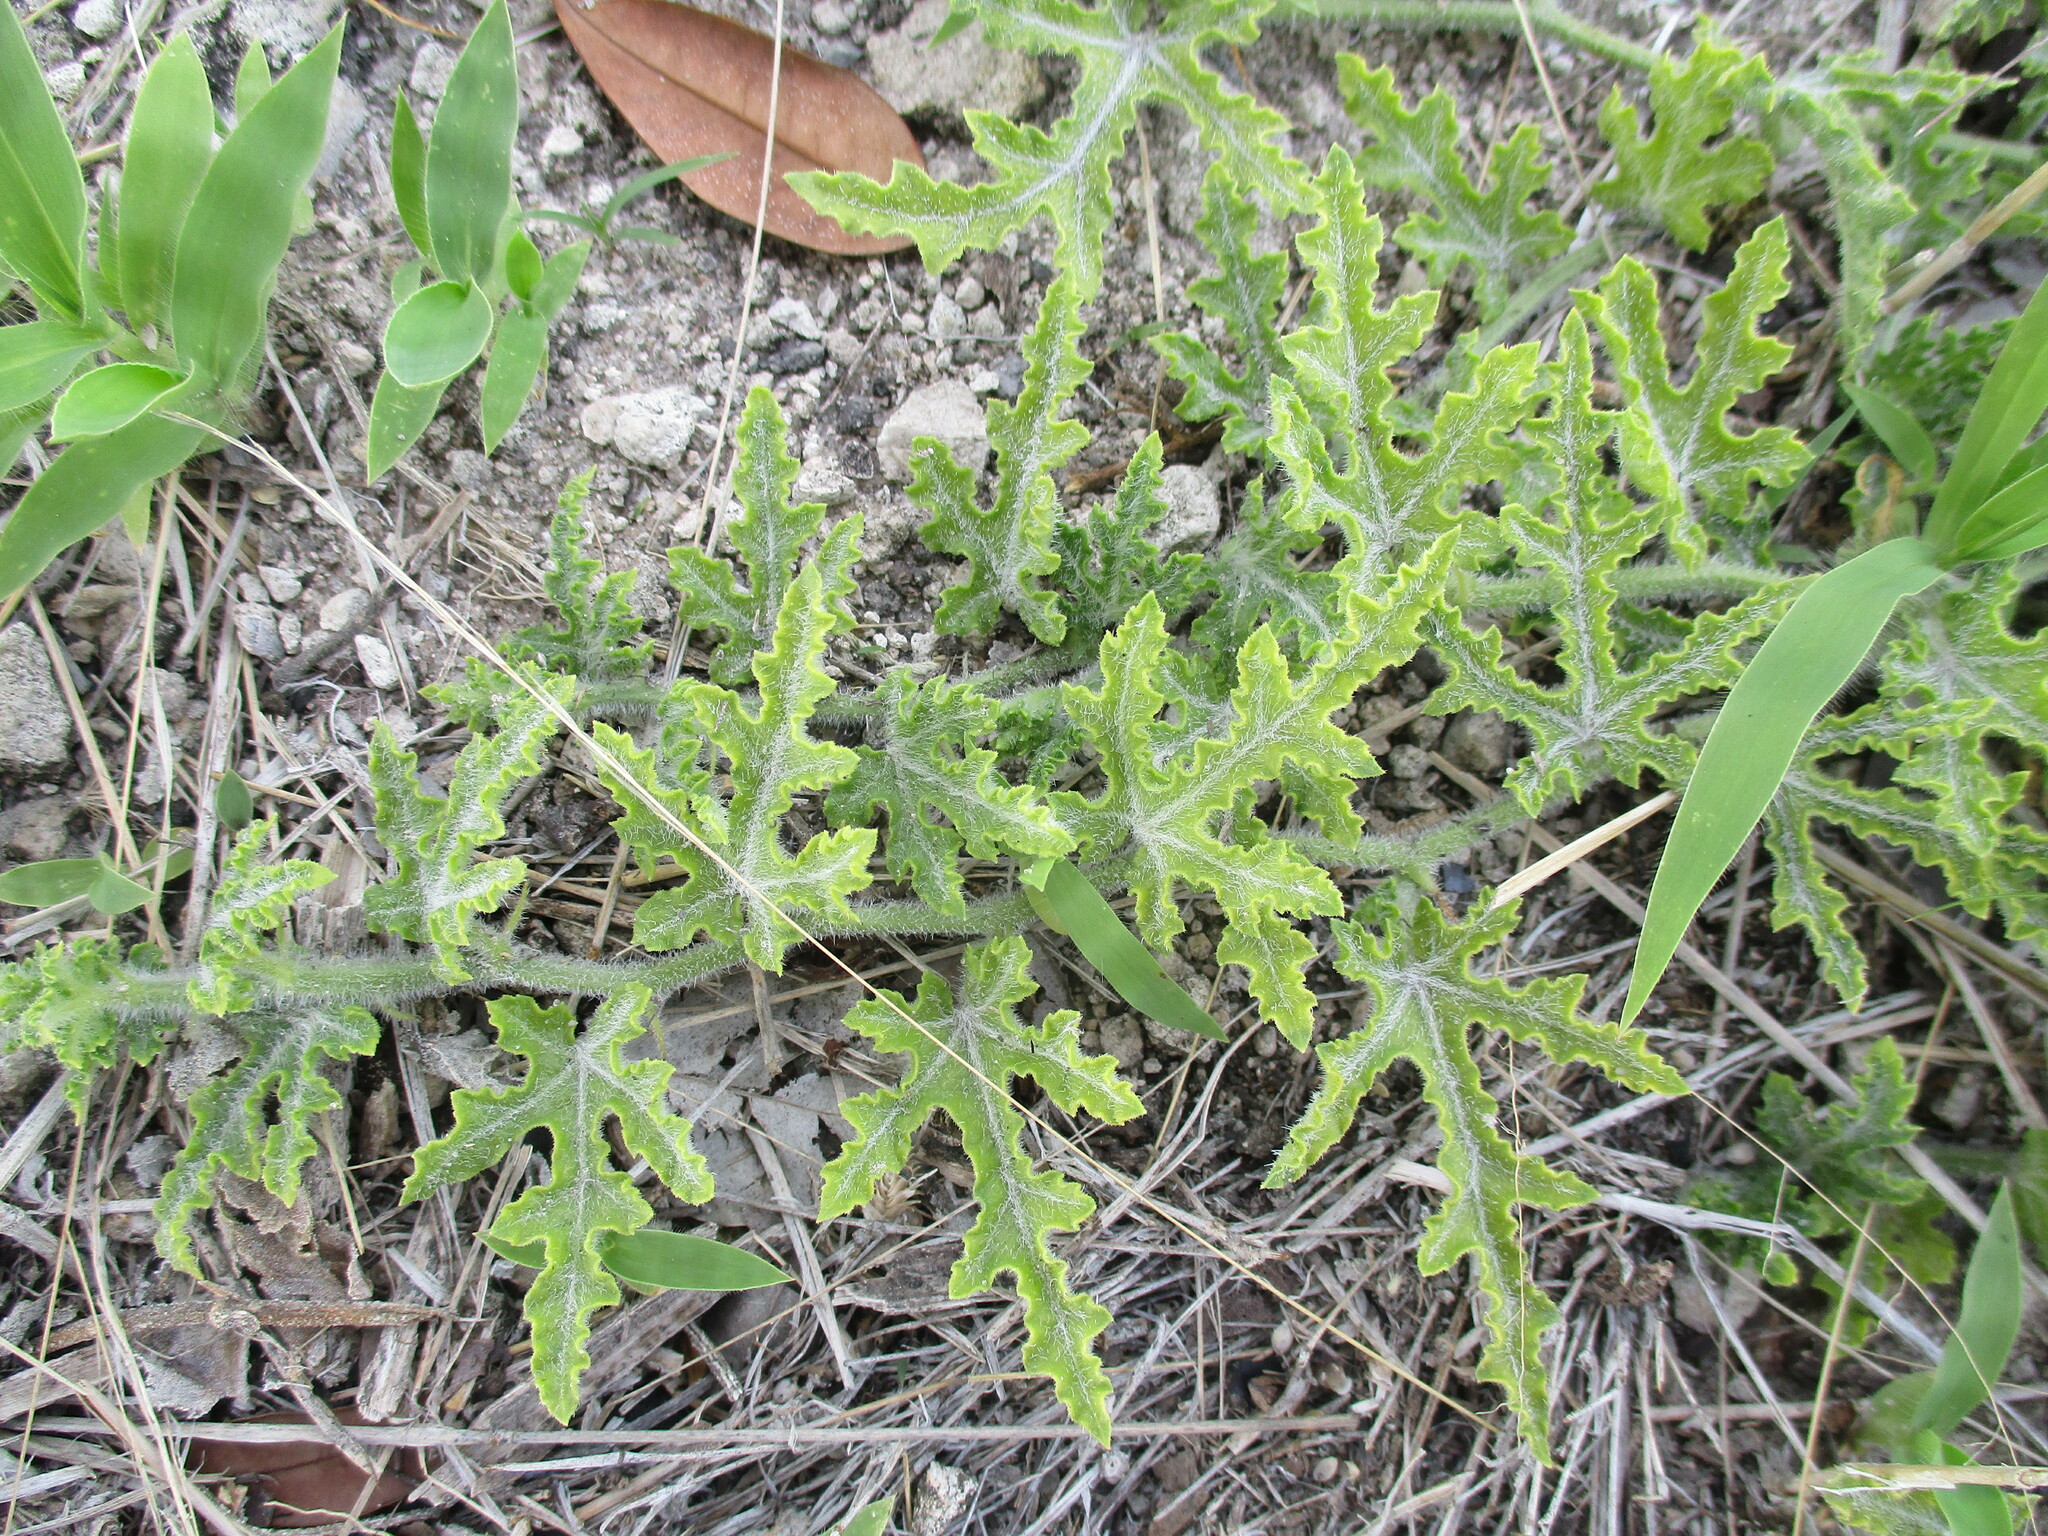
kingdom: Plantae
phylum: Tracheophyta
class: Magnoliopsida
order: Cucurbitales
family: Cucurbitaceae
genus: Citrullus
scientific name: Citrullus naudinianus
